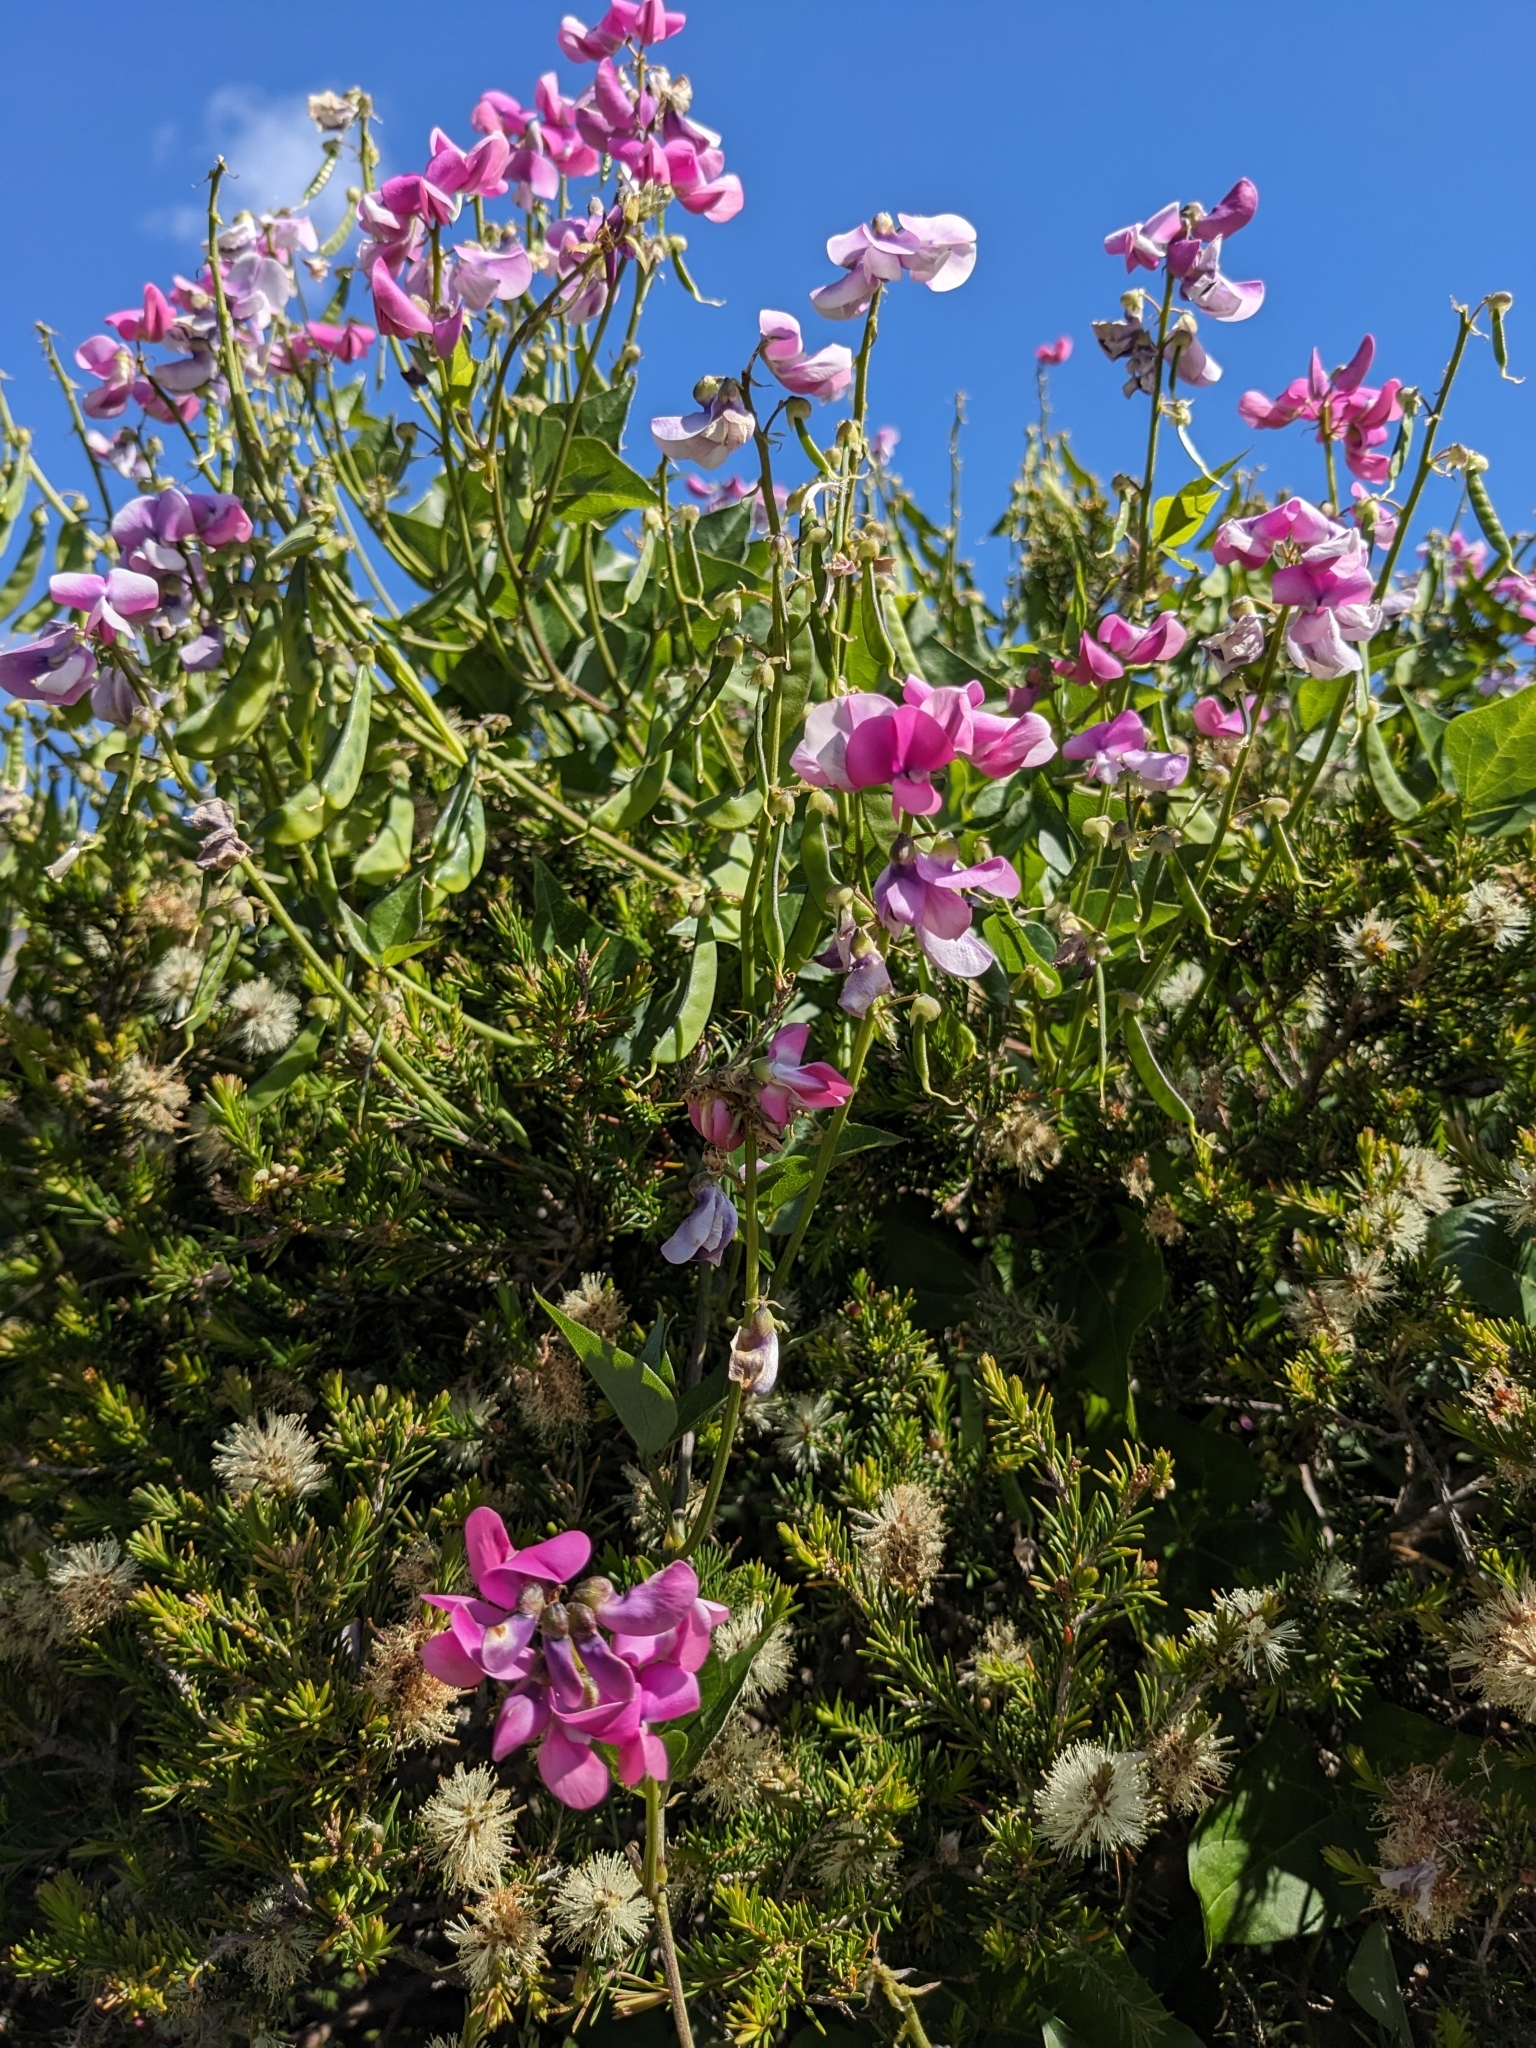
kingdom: Plantae
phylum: Tracheophyta
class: Magnoliopsida
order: Fabales
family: Fabaceae
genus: Dipogon
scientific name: Dipogon lignosus
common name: Okie bean
